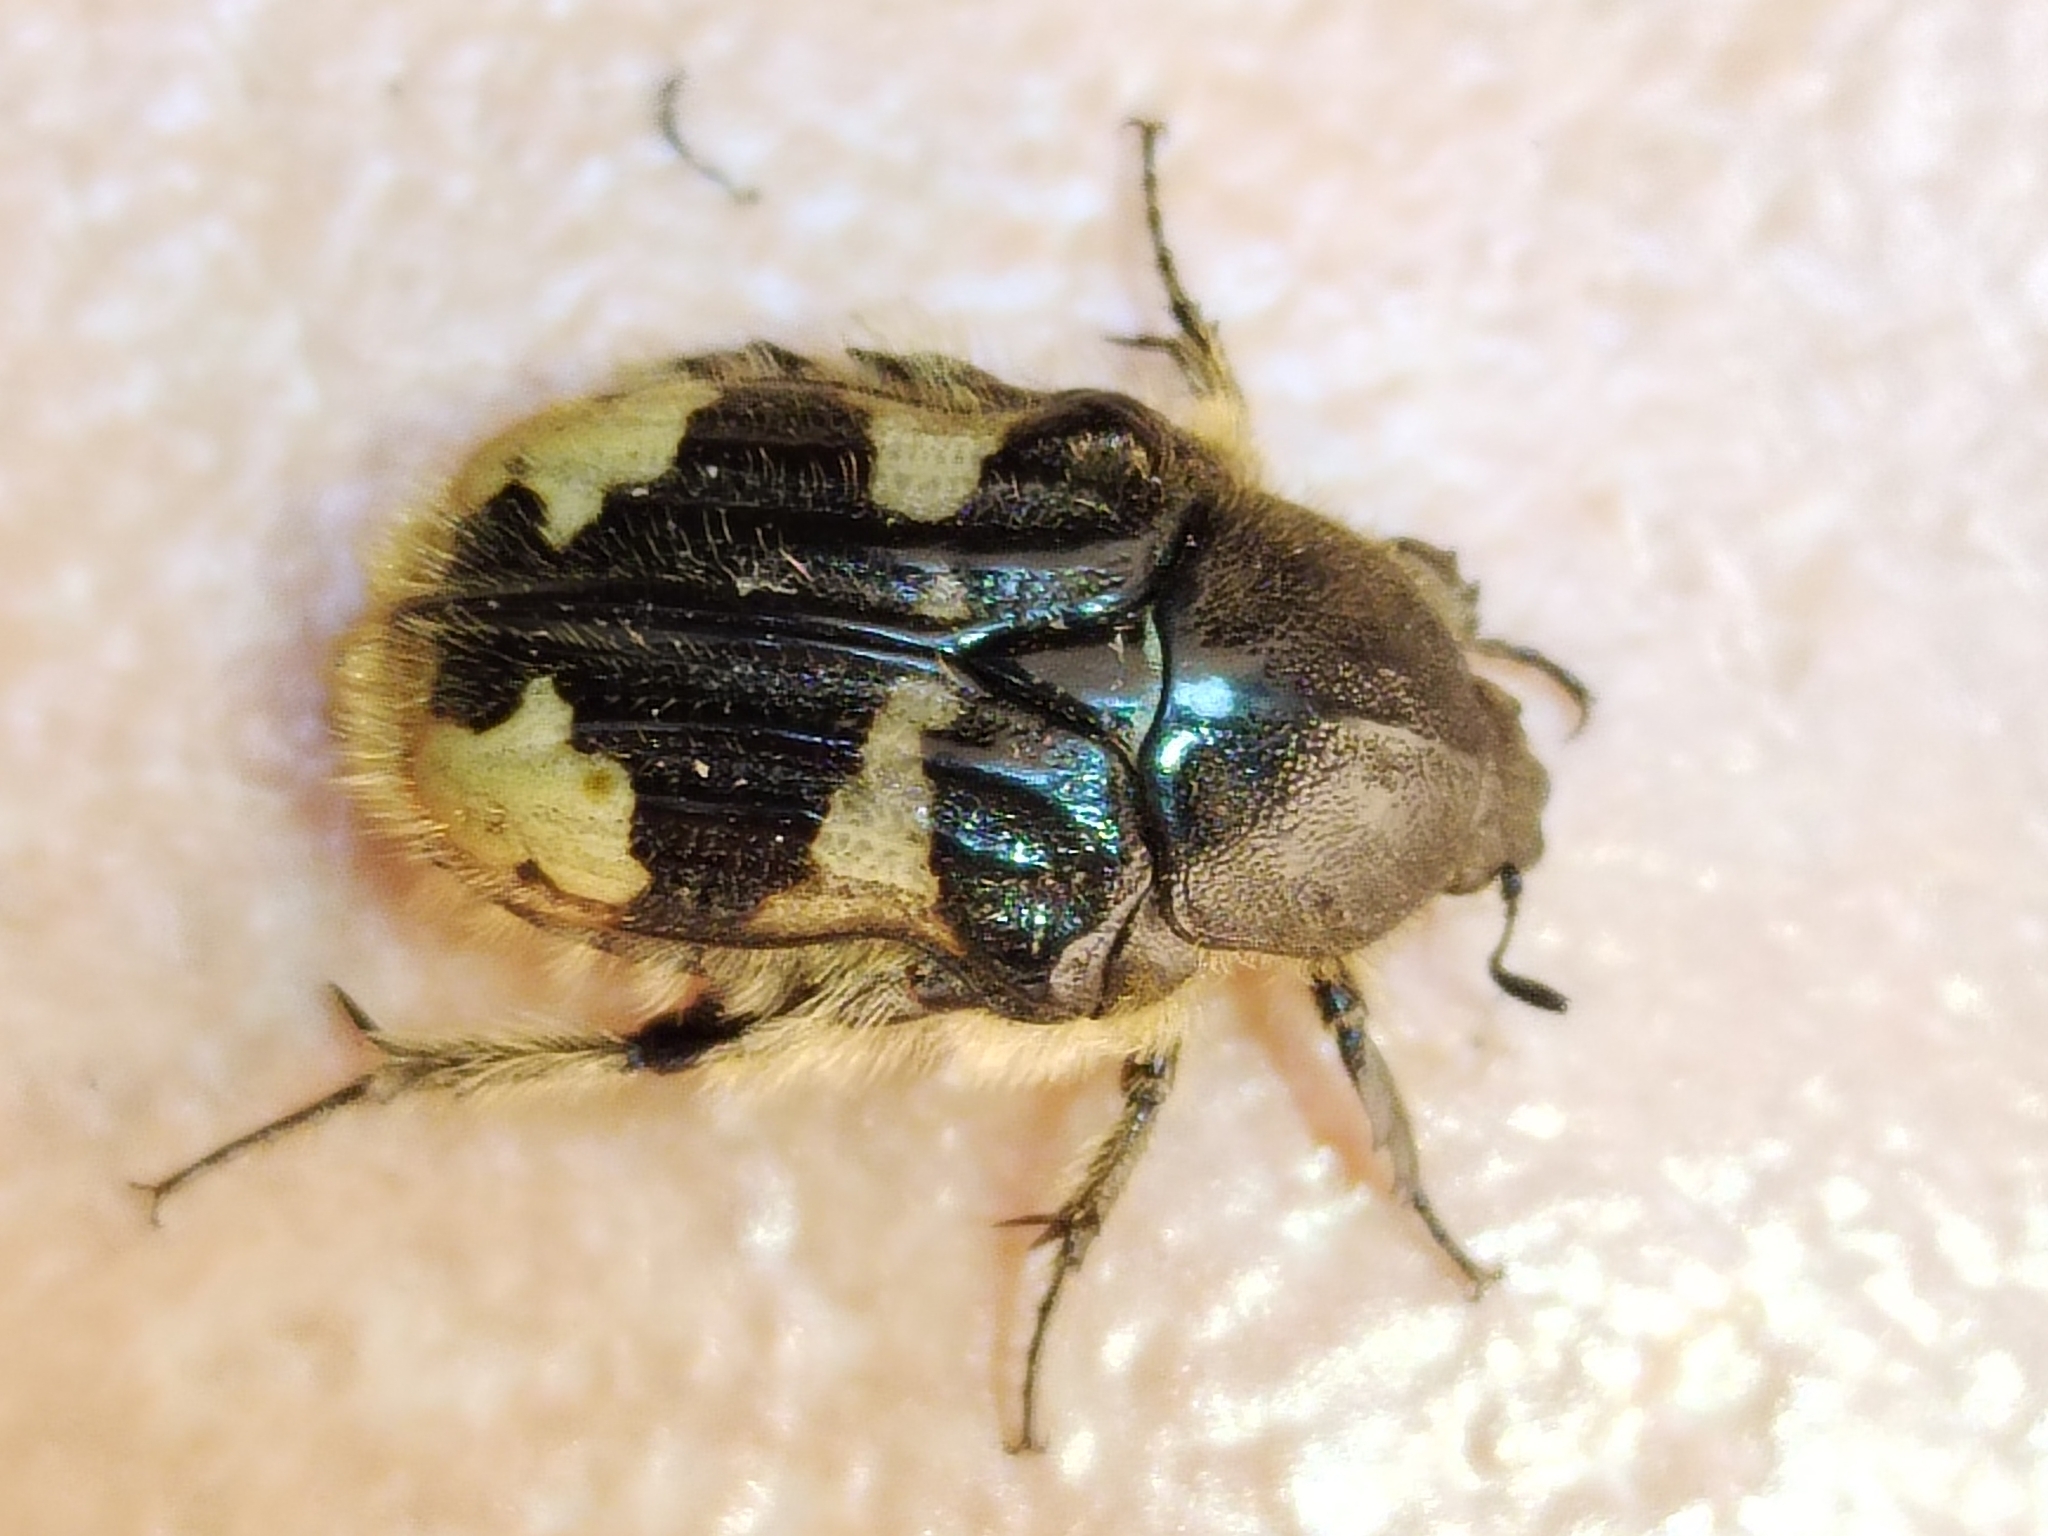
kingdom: Animalia
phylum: Arthropoda
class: Insecta
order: Coleoptera
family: Scarabaeidae
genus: Euphoria
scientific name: Euphoria basalis
